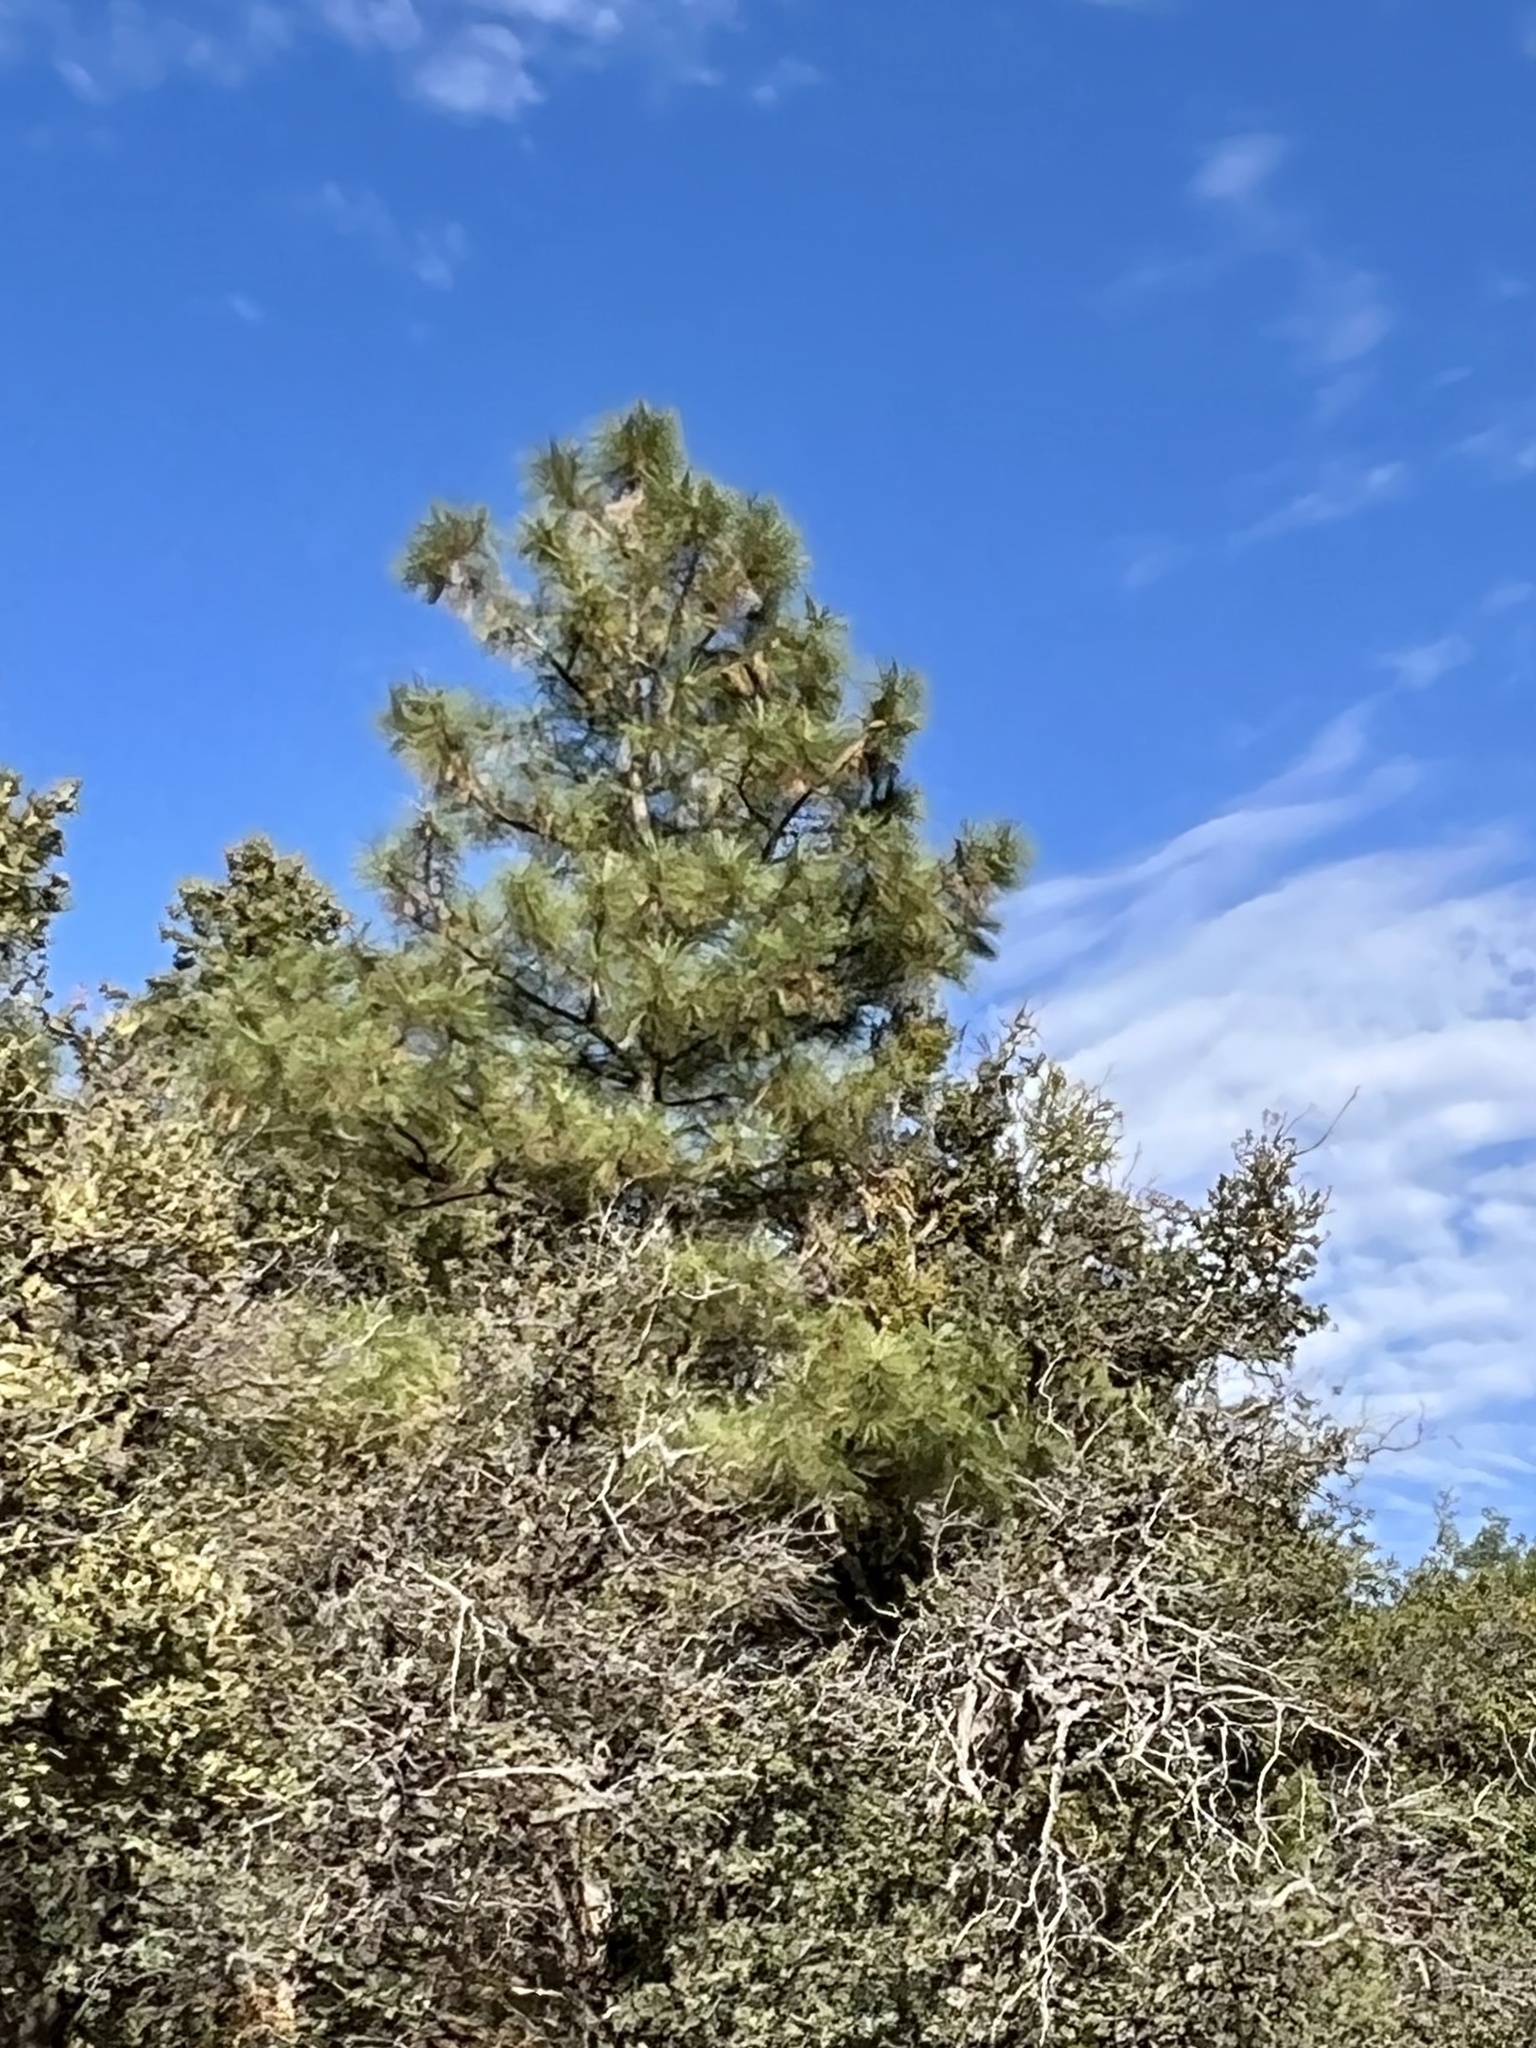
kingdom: Plantae
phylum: Tracheophyta
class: Pinopsida
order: Pinales
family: Pinaceae
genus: Pinus
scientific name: Pinus ponderosa
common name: Western yellow-pine
